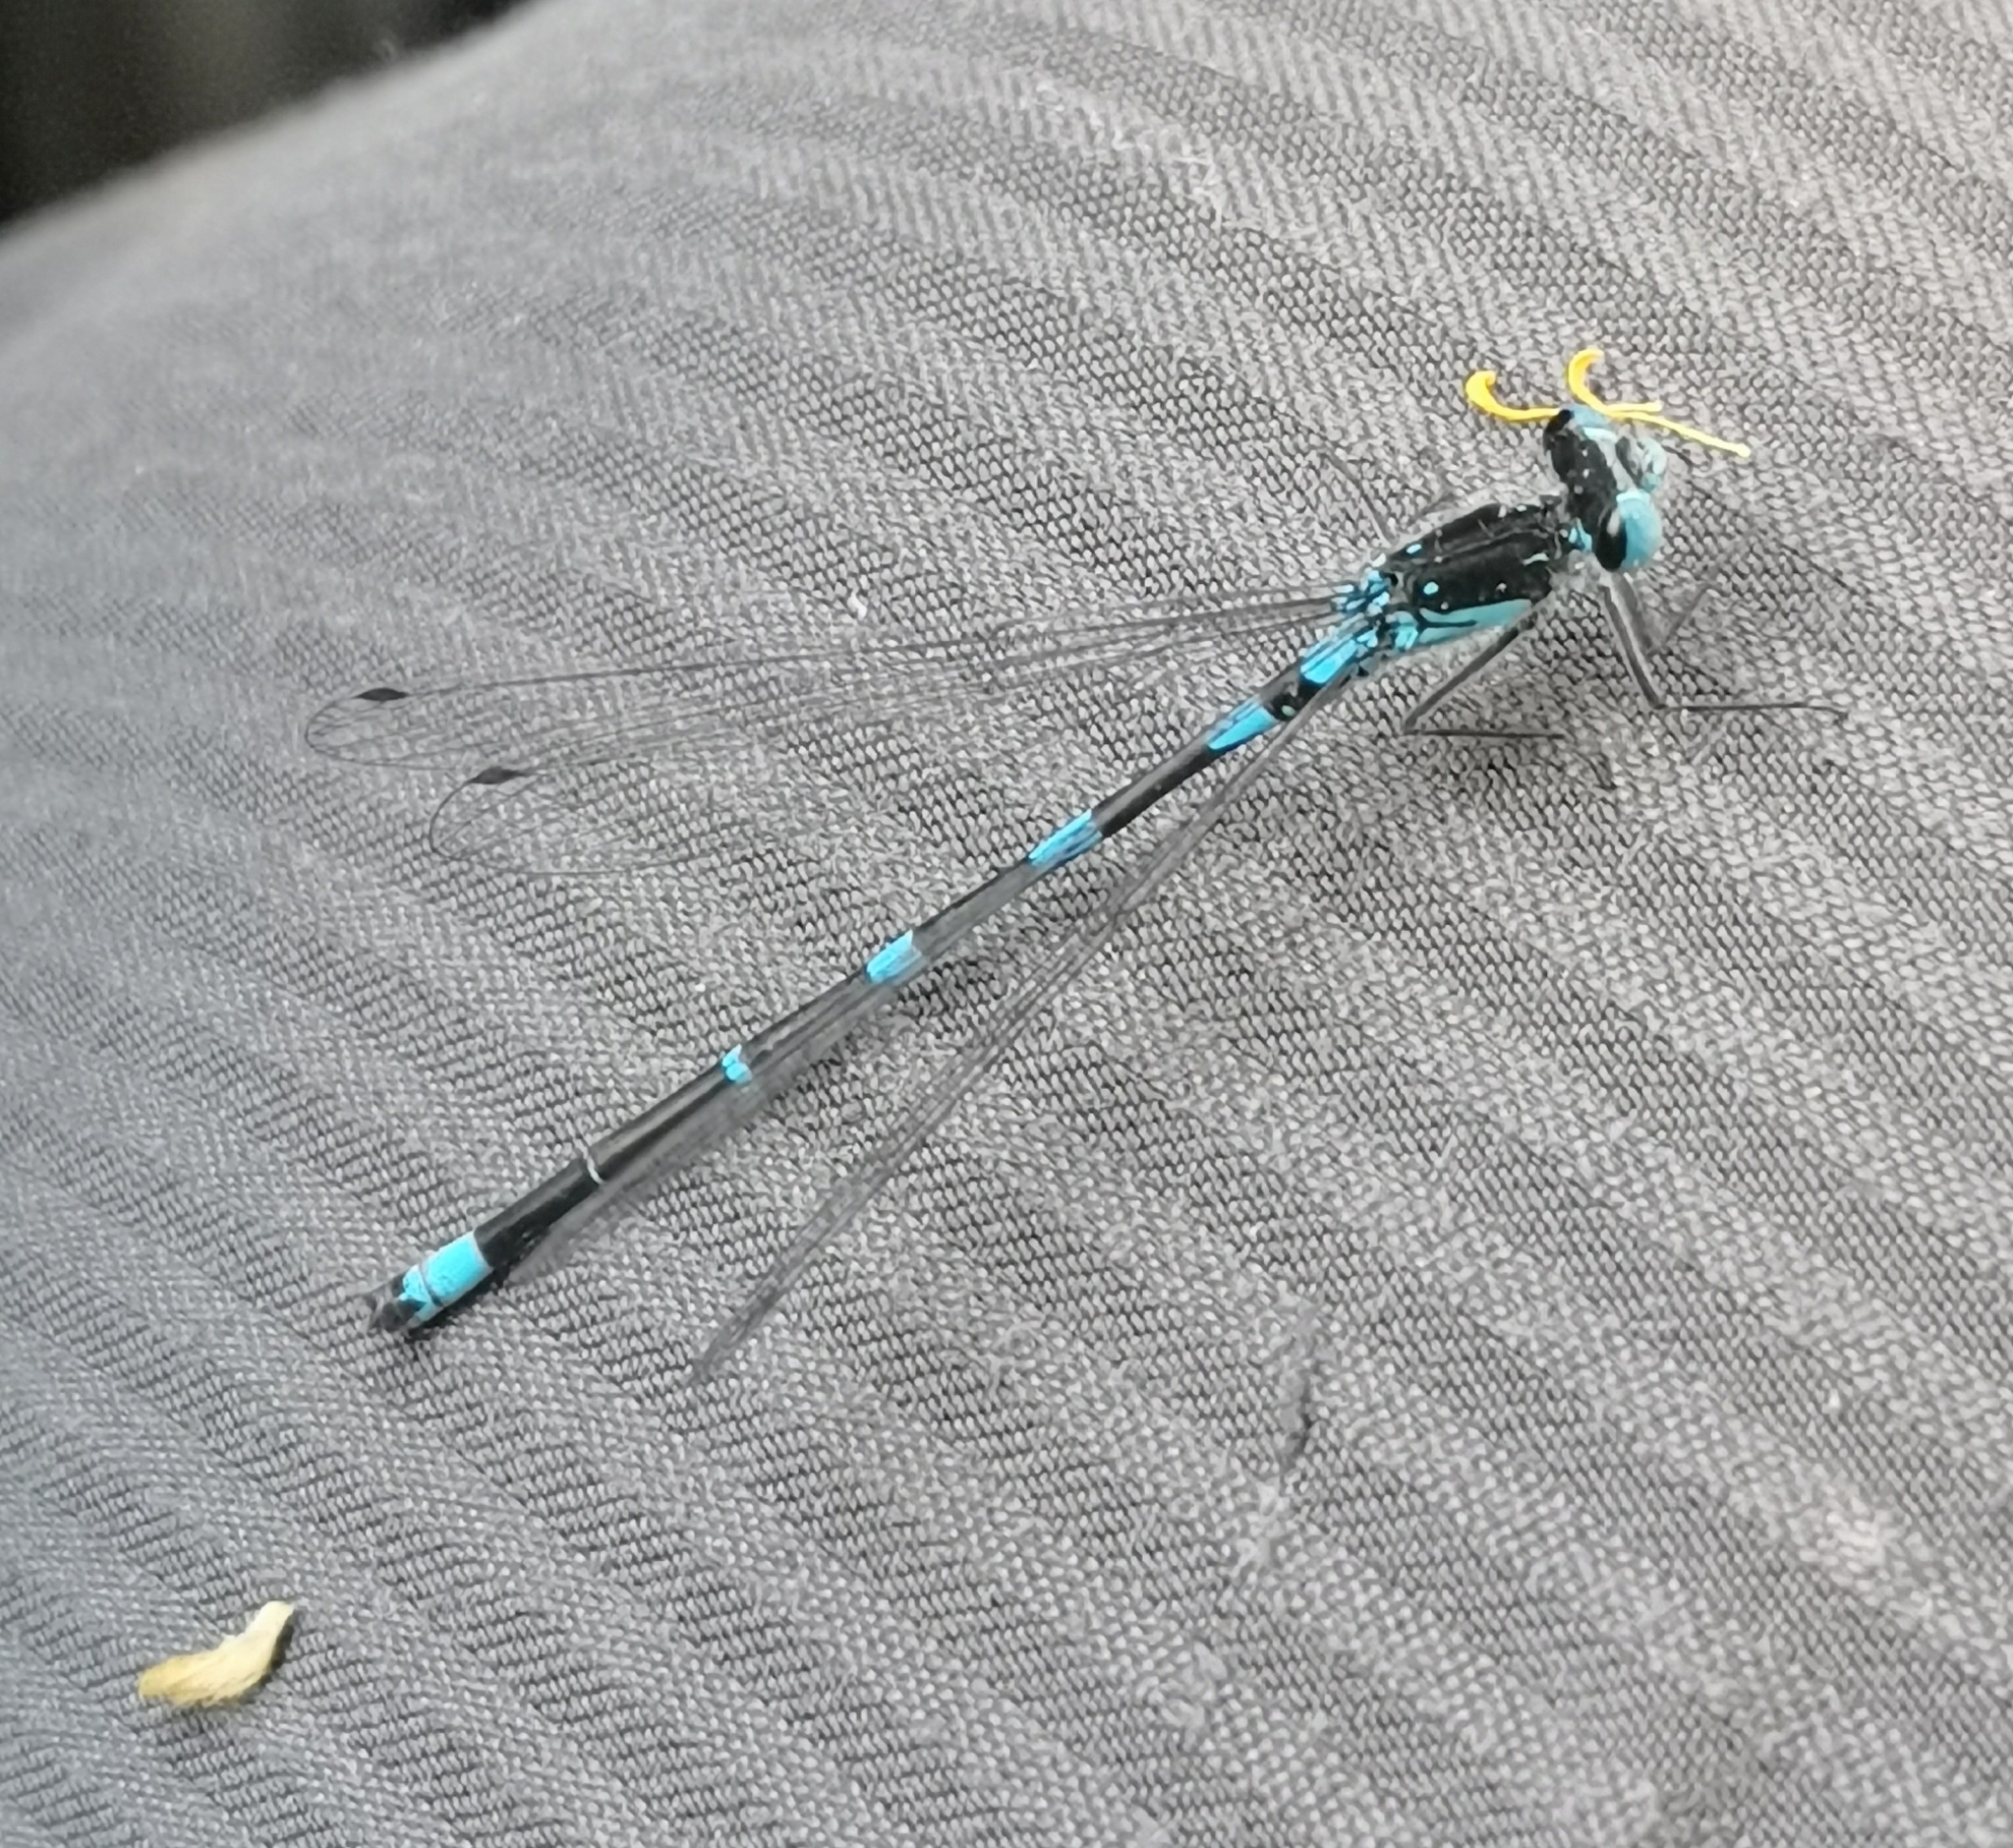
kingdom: Animalia
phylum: Arthropoda
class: Insecta
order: Odonata
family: Coenagrionidae
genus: Coenagrion
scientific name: Coenagrion pulchellum
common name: Variable bluet
